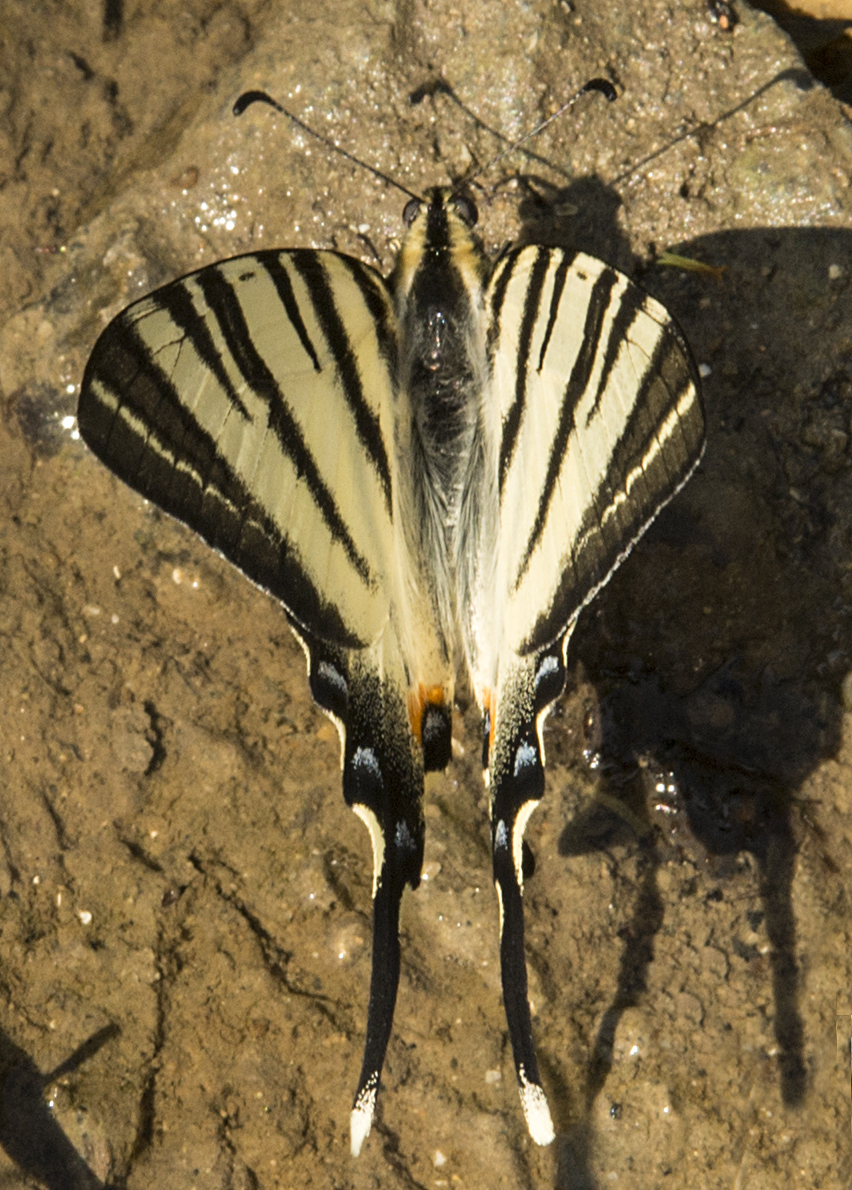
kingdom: Animalia
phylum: Arthropoda
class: Insecta
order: Lepidoptera
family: Papilionidae
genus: Iphiclides
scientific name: Iphiclides podalirius
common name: Scarce swallowtail
